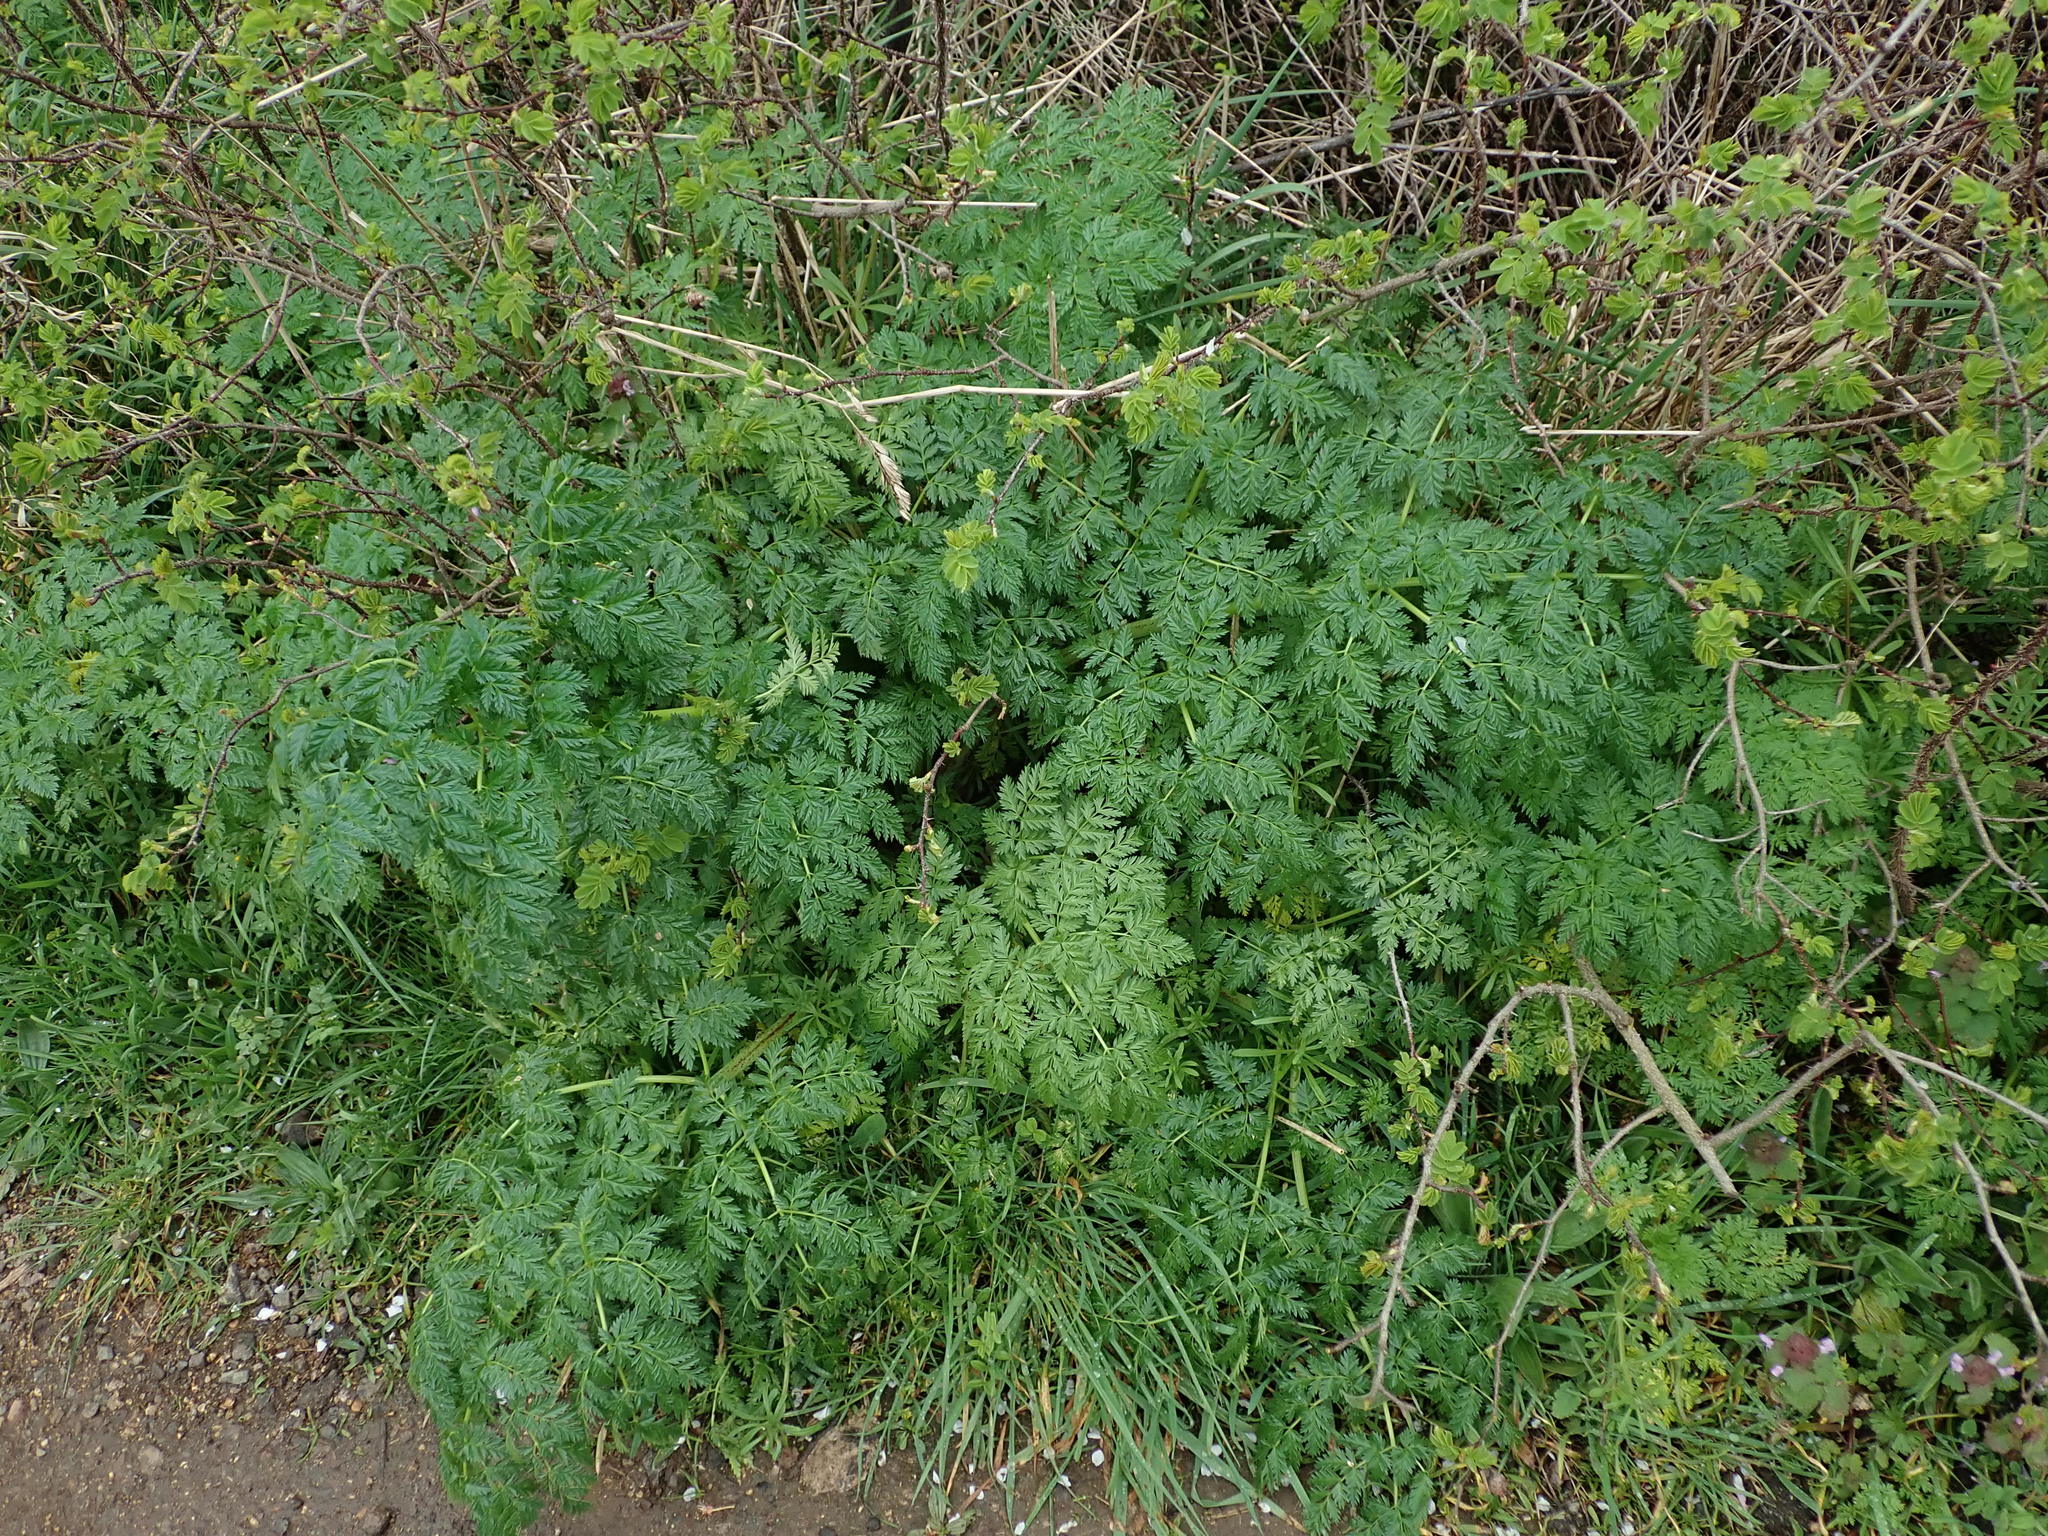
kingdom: Plantae
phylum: Tracheophyta
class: Magnoliopsida
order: Apiales
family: Apiaceae
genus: Conium
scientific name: Conium maculatum
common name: Hemlock
